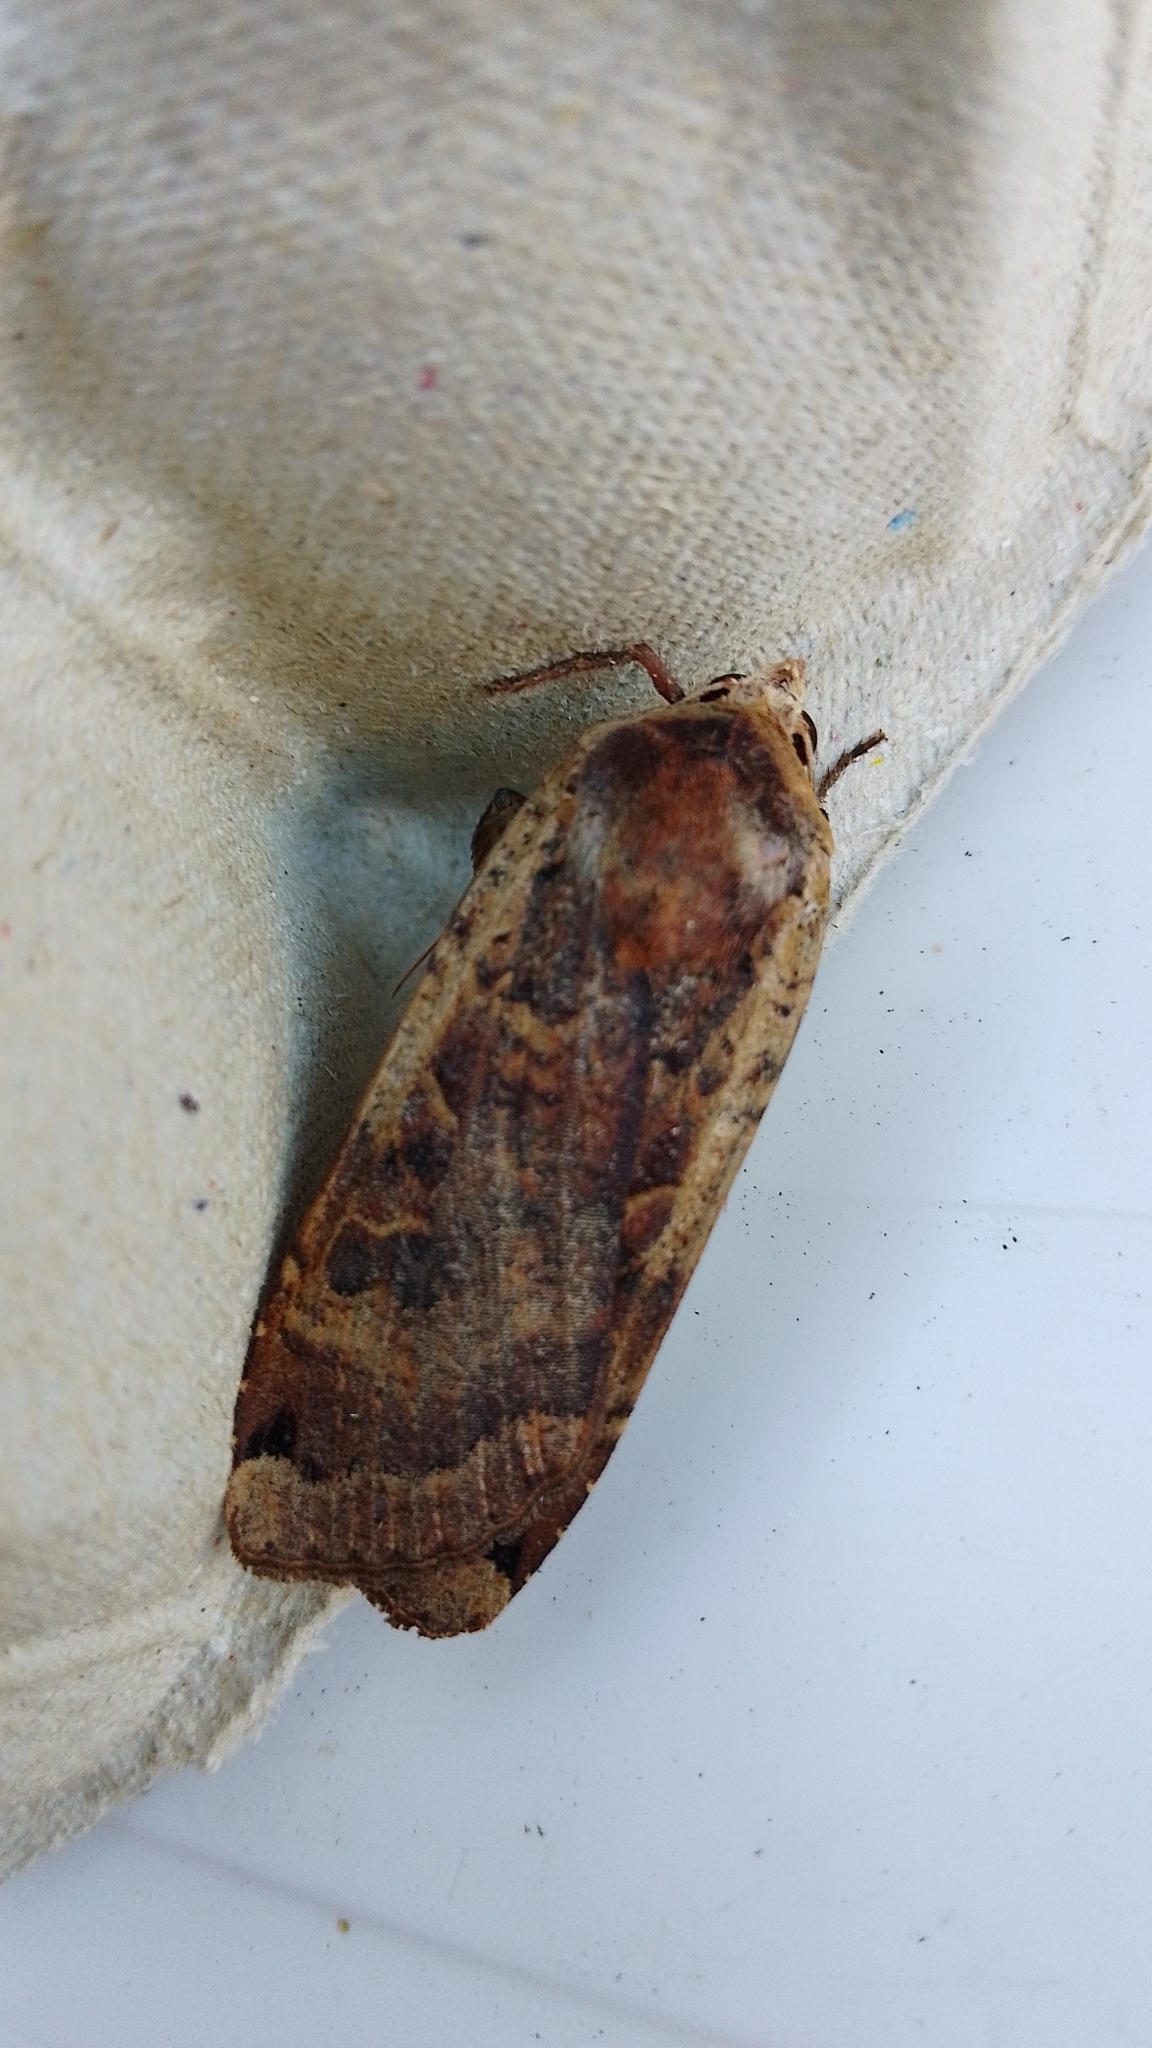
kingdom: Animalia
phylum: Arthropoda
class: Insecta
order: Lepidoptera
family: Noctuidae
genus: Noctua
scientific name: Noctua pronuba
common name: Large yellow underwing
